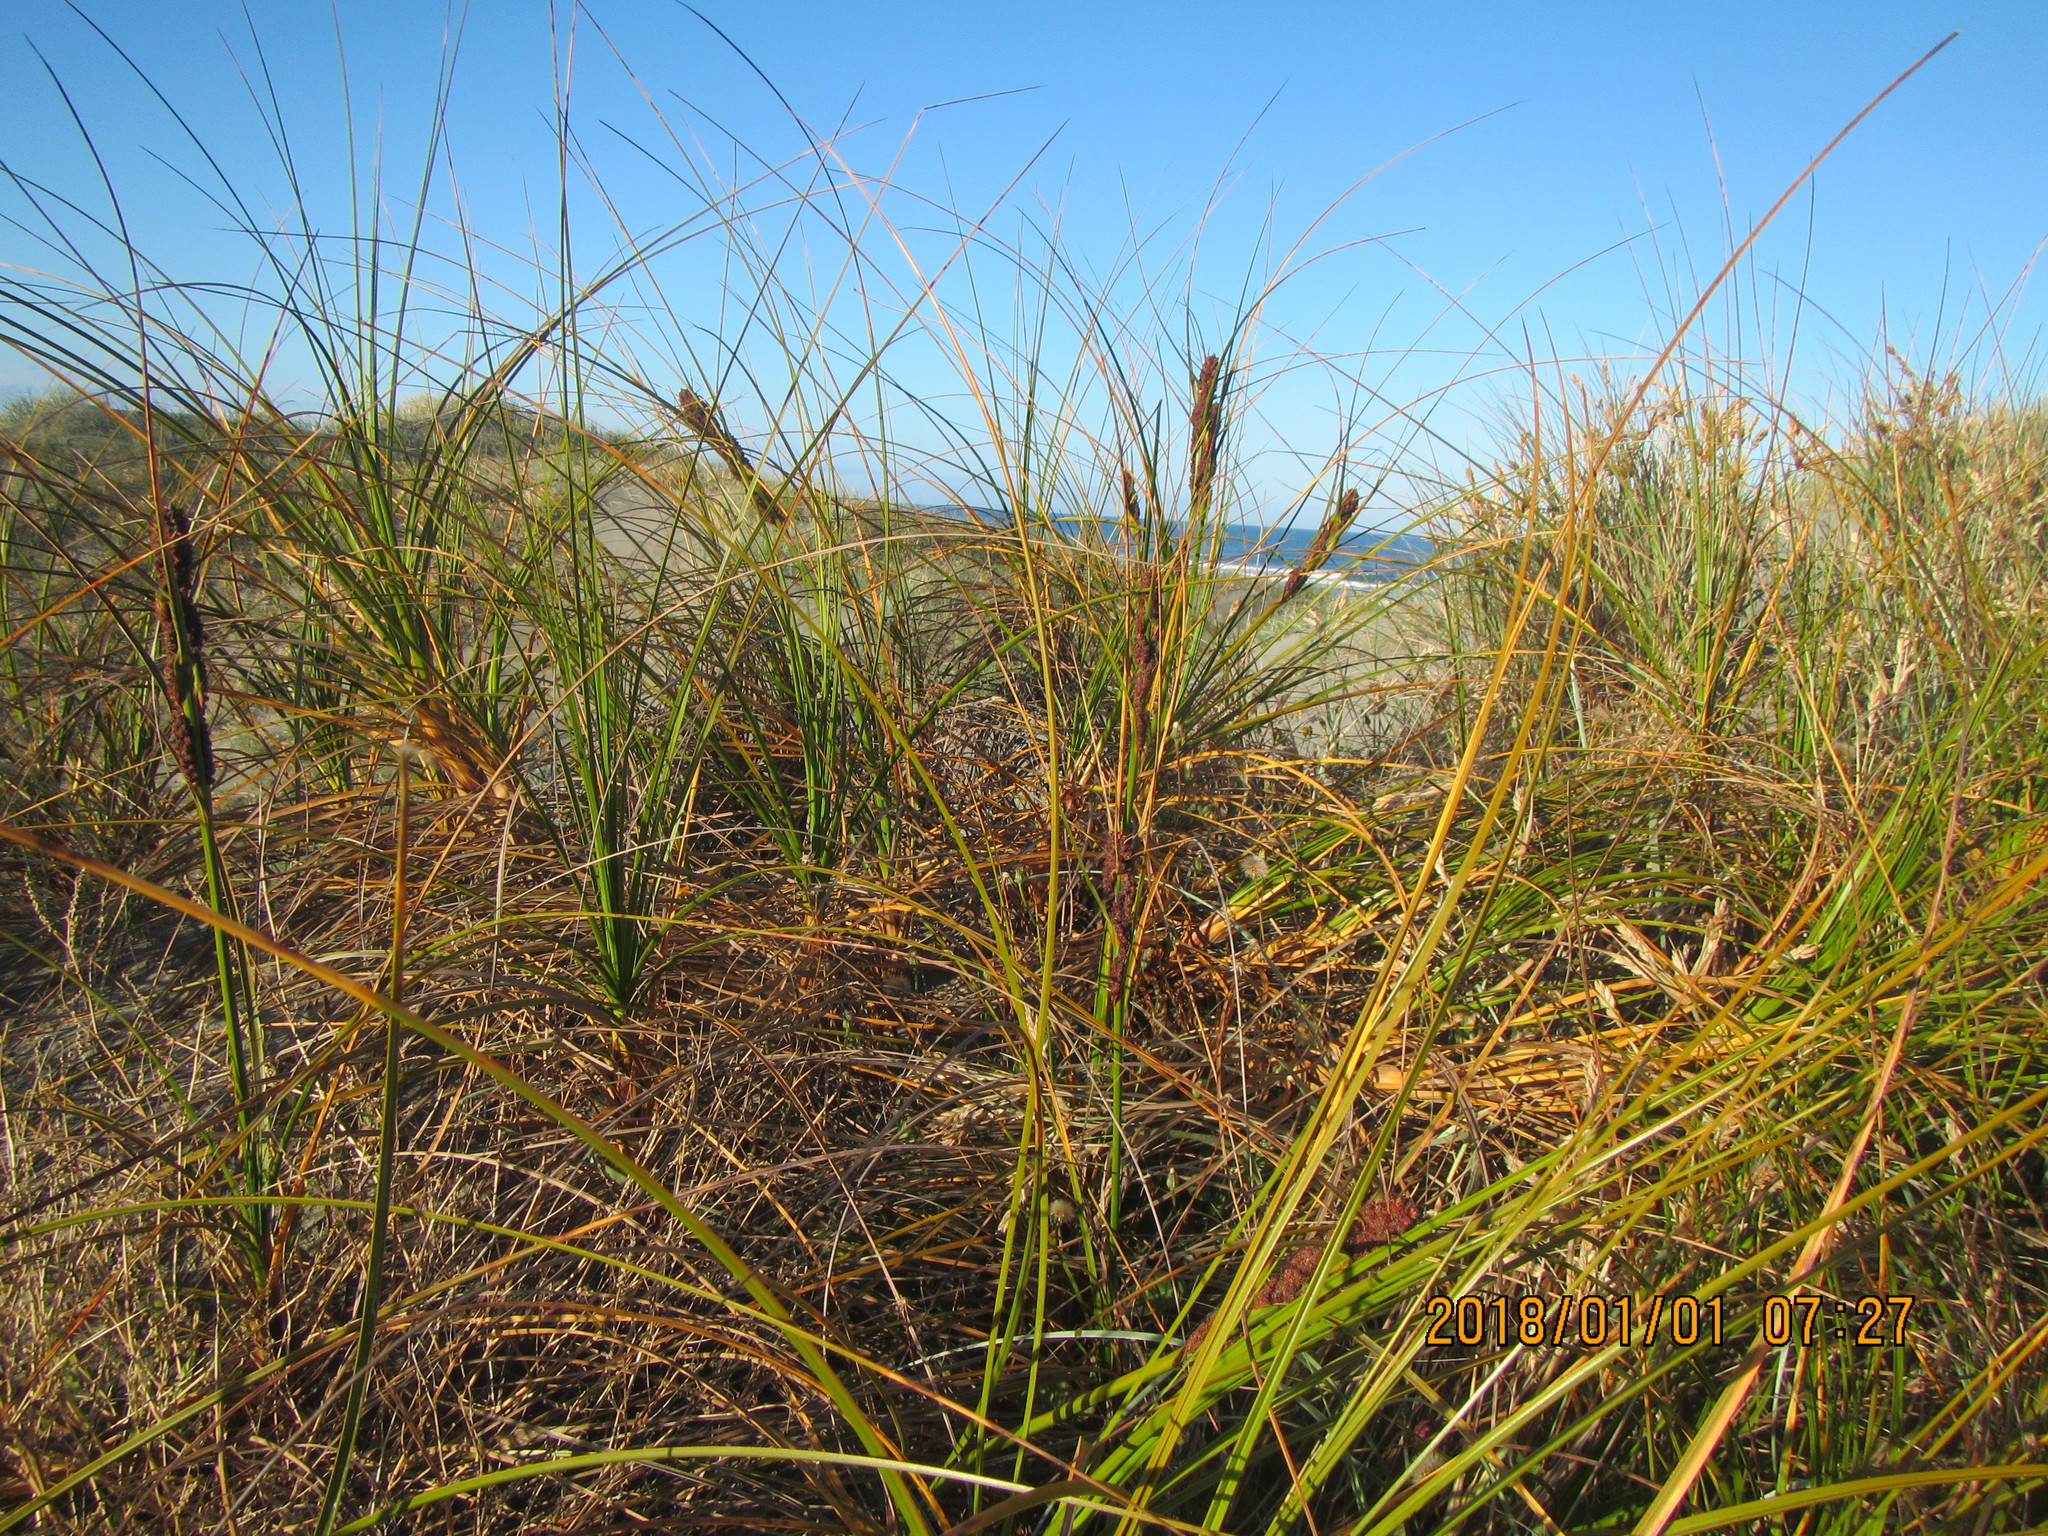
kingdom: Plantae
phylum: Tracheophyta
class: Liliopsida
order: Poales
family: Cyperaceae
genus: Ficinia
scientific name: Ficinia spiralis
